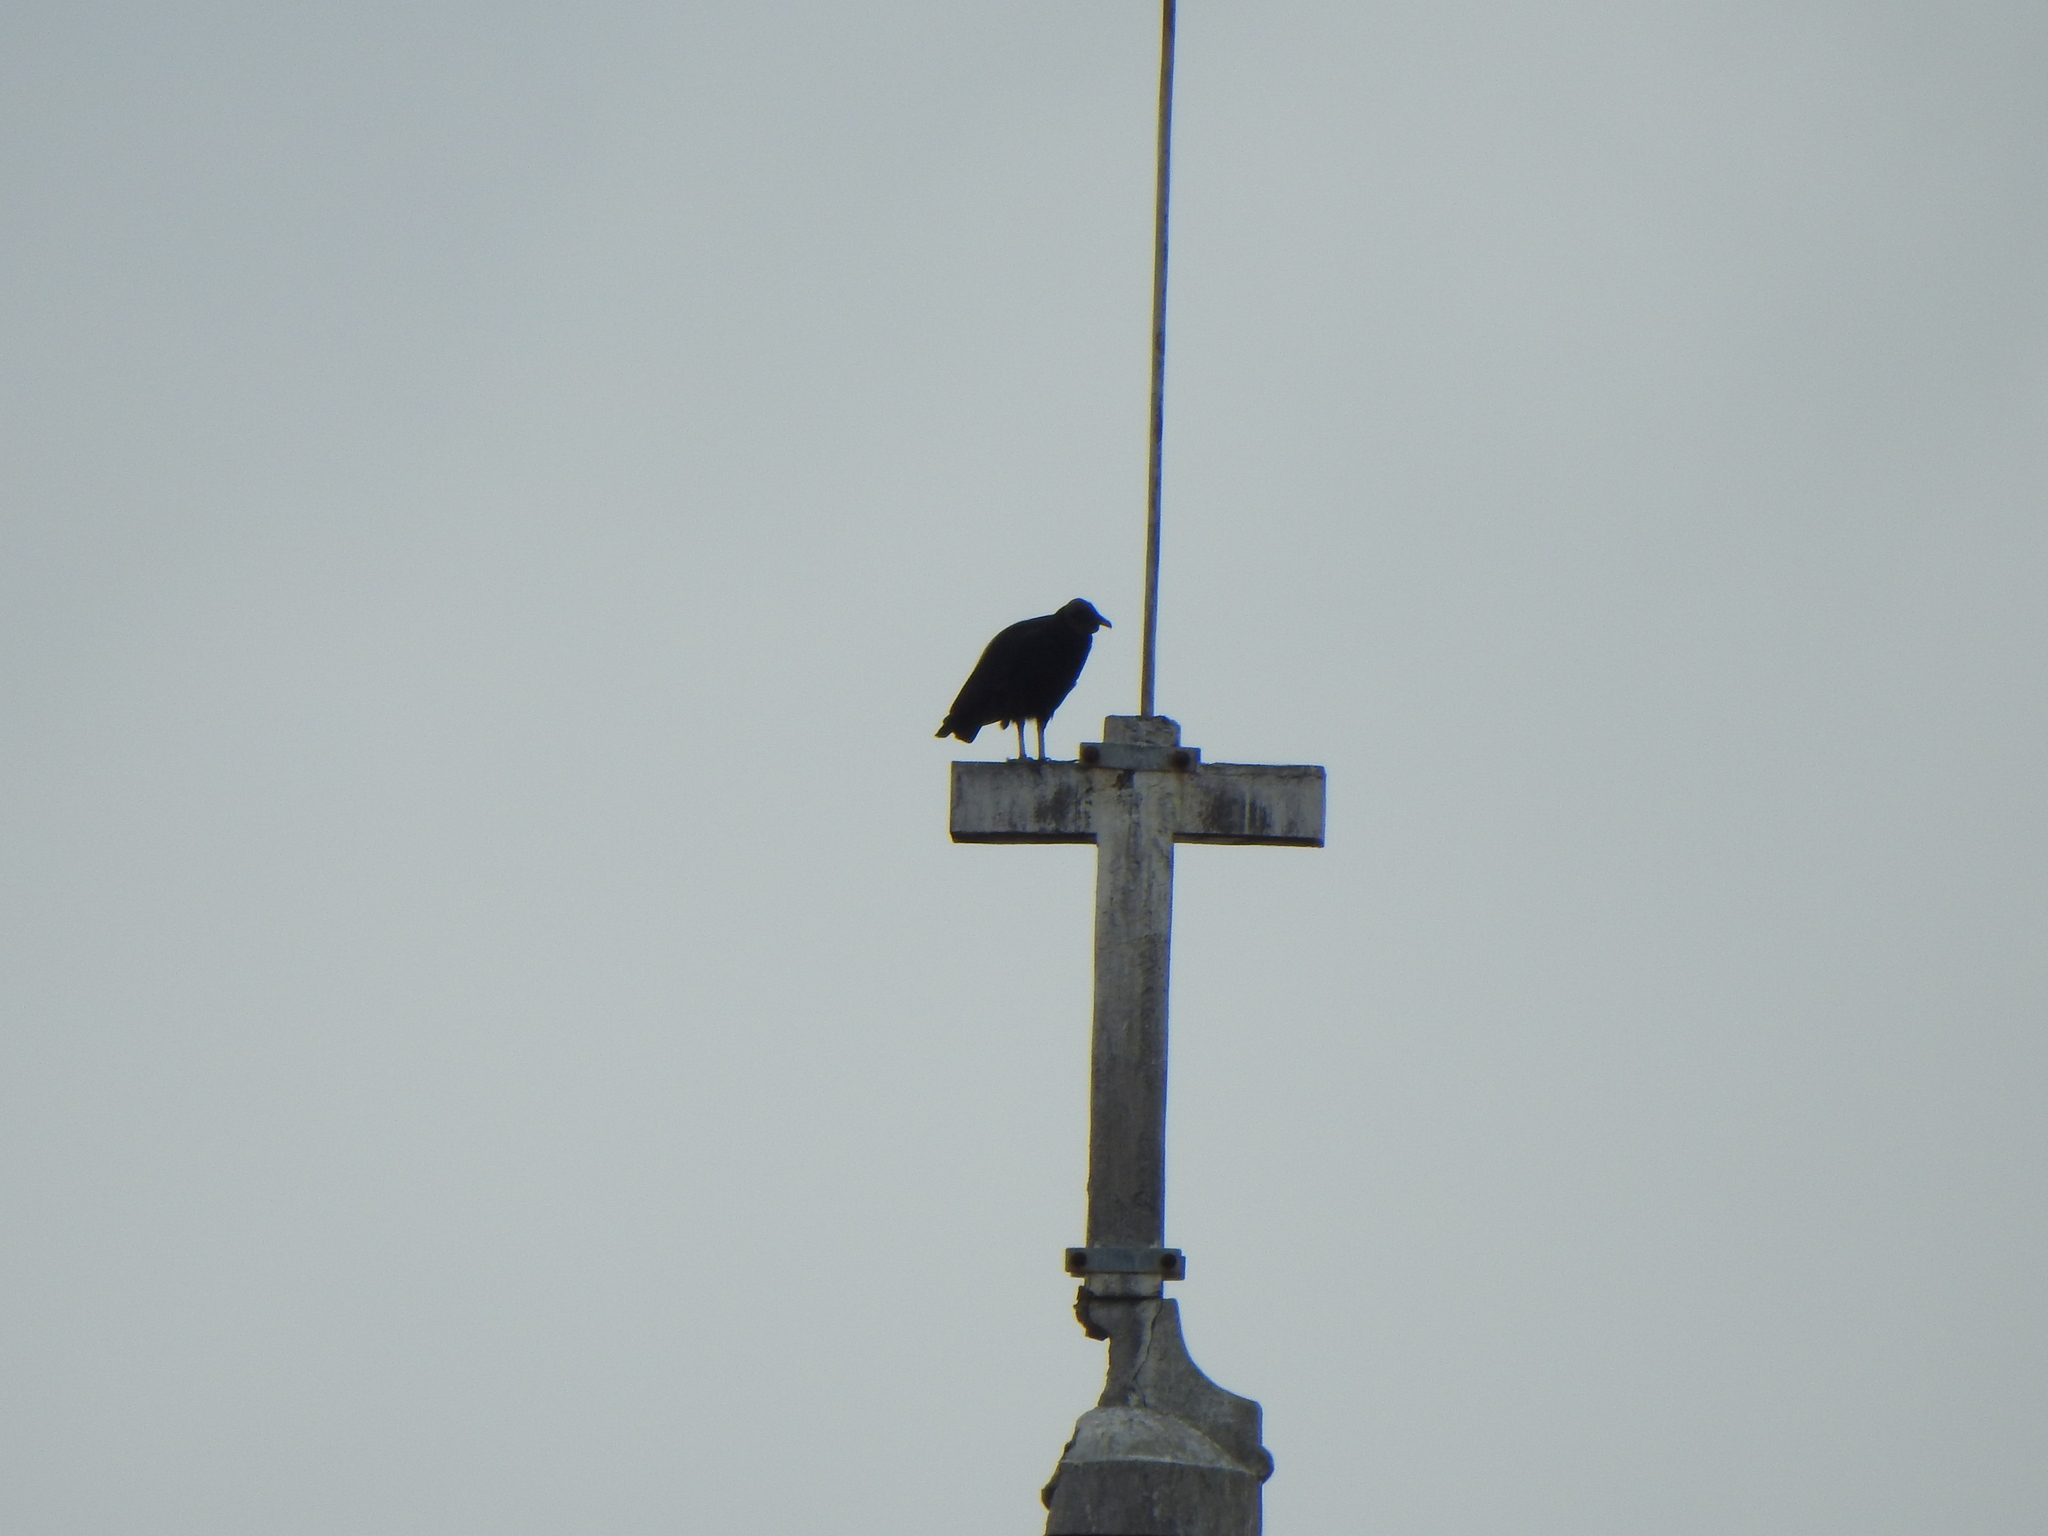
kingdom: Animalia
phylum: Chordata
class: Aves
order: Accipitriformes
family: Cathartidae
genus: Coragyps
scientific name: Coragyps atratus
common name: Black vulture
